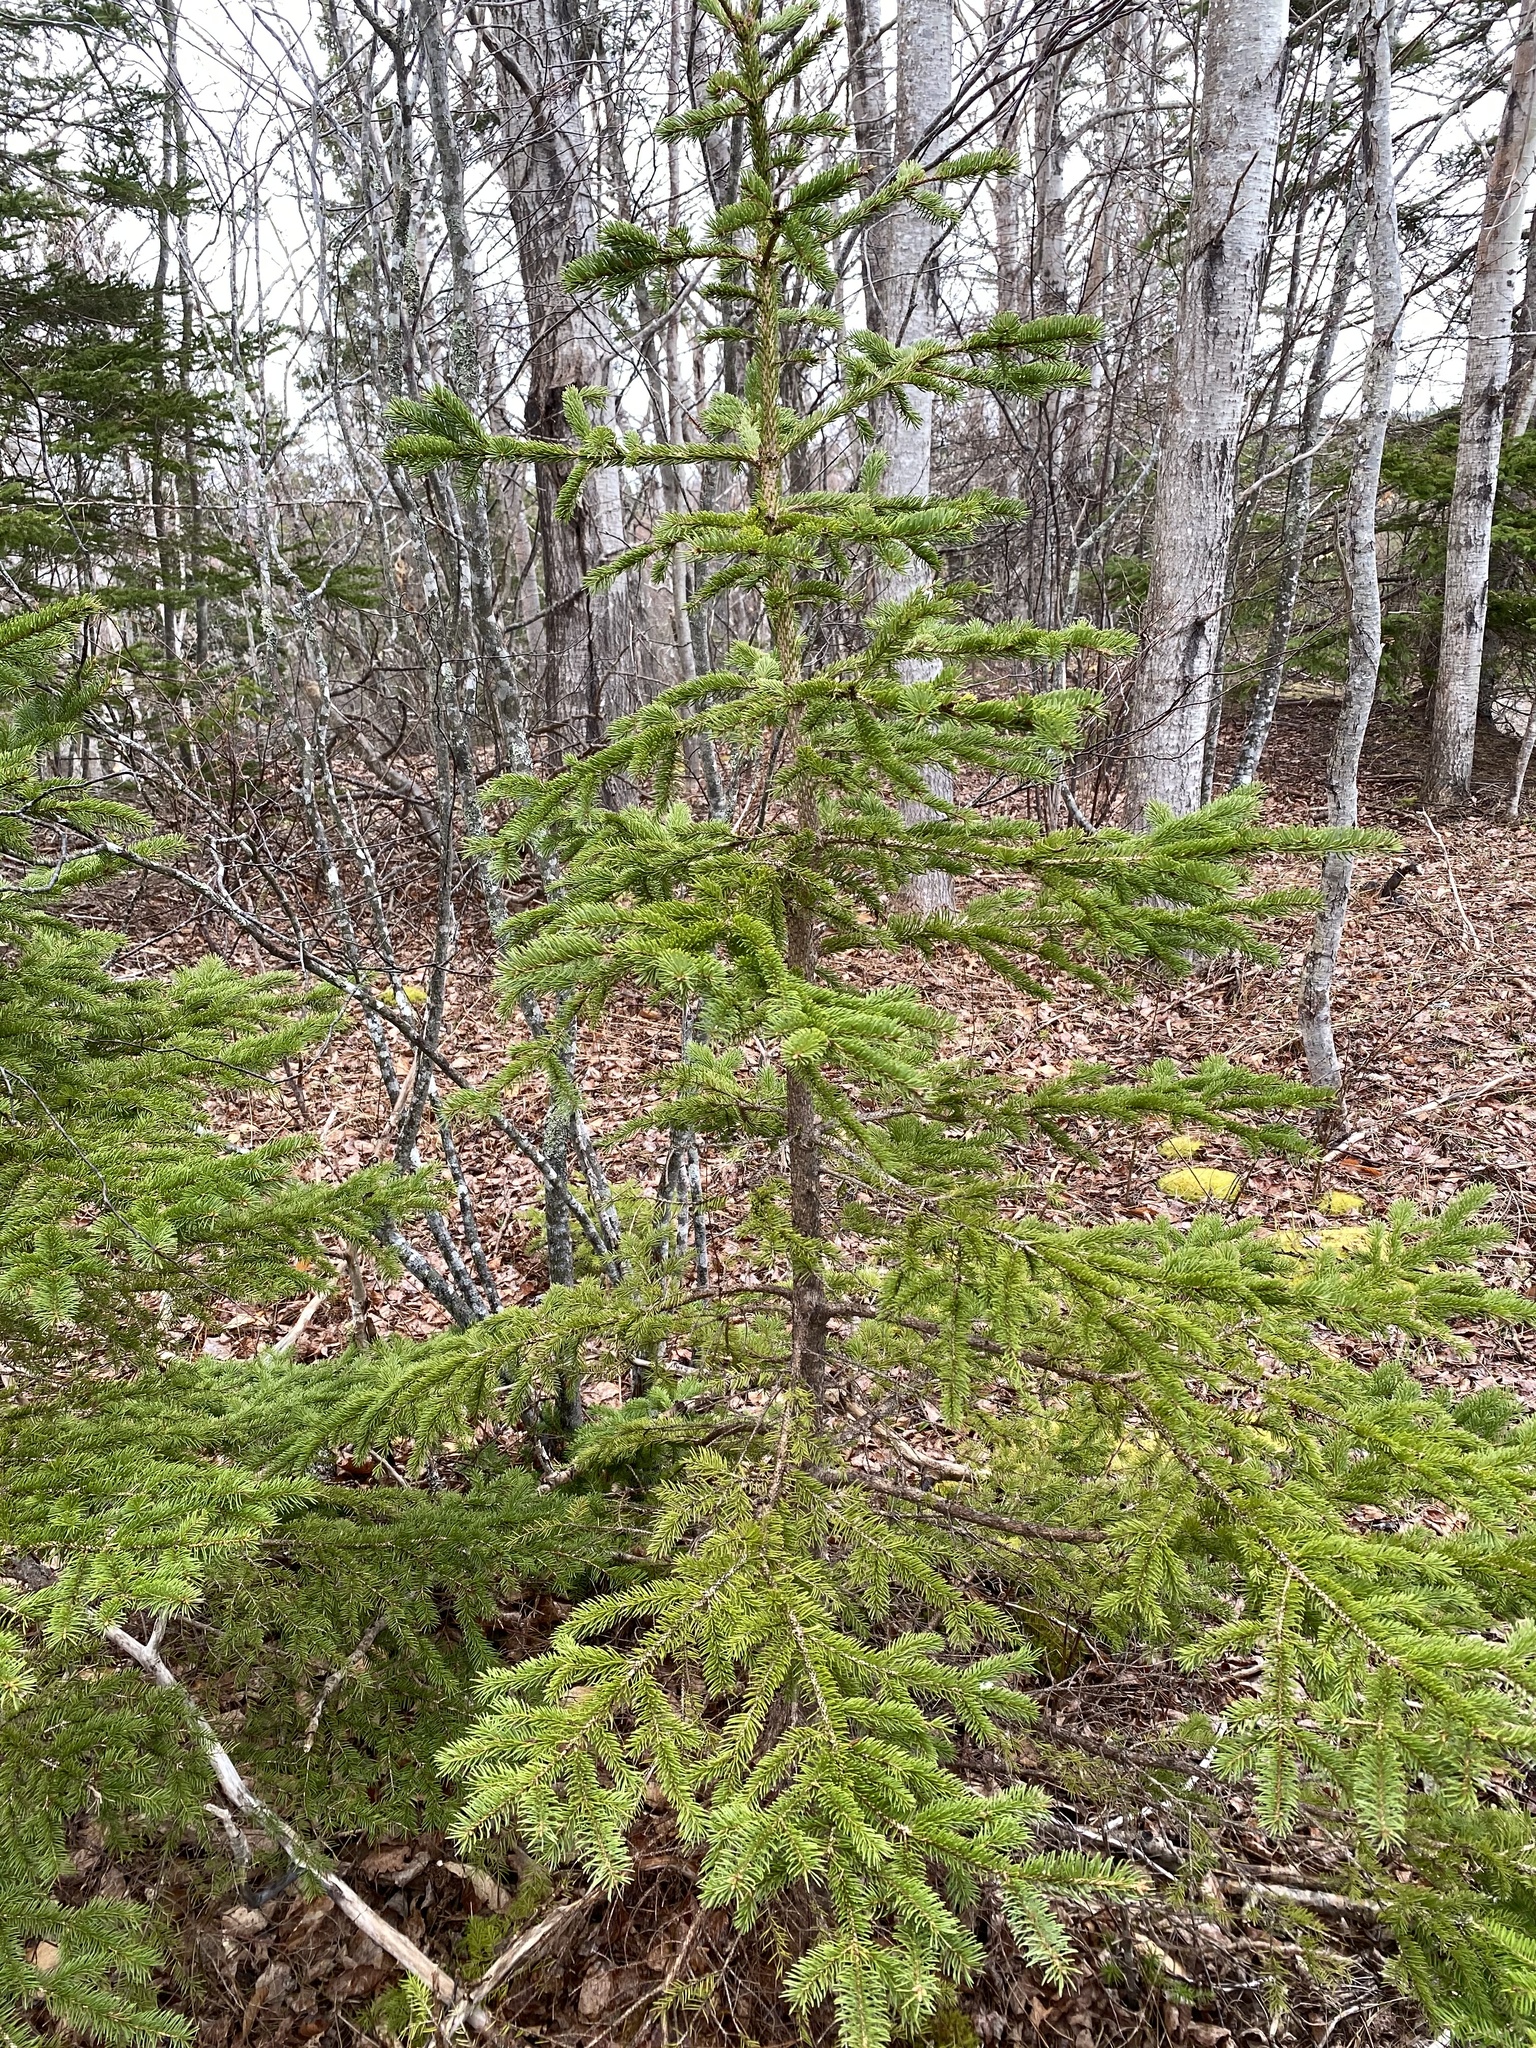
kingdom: Plantae
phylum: Tracheophyta
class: Pinopsida
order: Pinales
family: Pinaceae
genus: Picea
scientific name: Picea glauca
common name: White spruce
